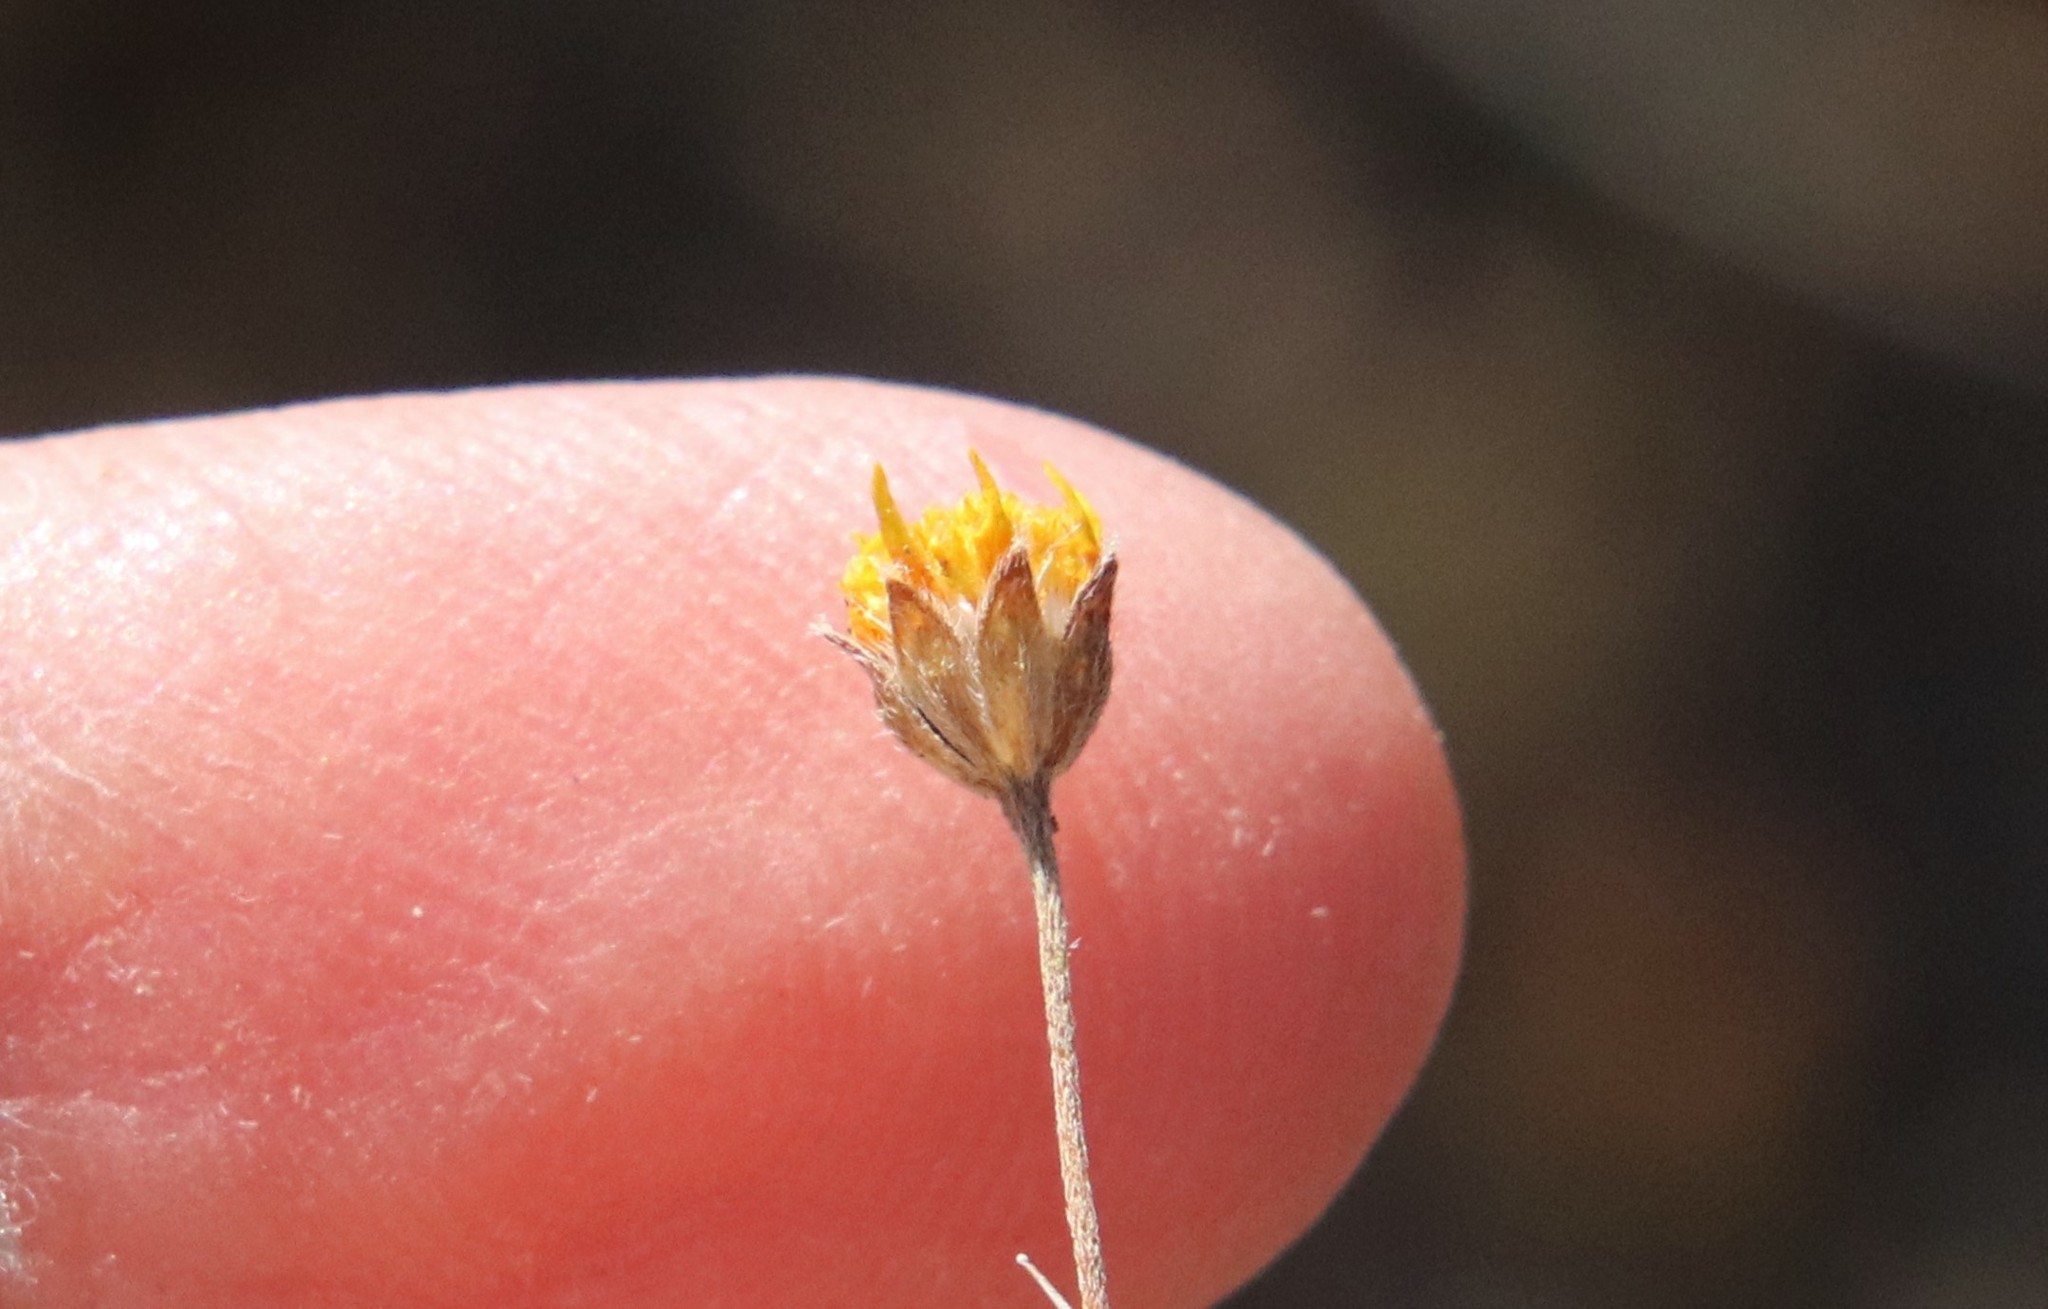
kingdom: Plantae
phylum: Tracheophyta
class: Magnoliopsida
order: Asterales
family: Asteraceae
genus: Lasthenia
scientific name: Lasthenia gracilis
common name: Common goldfields
